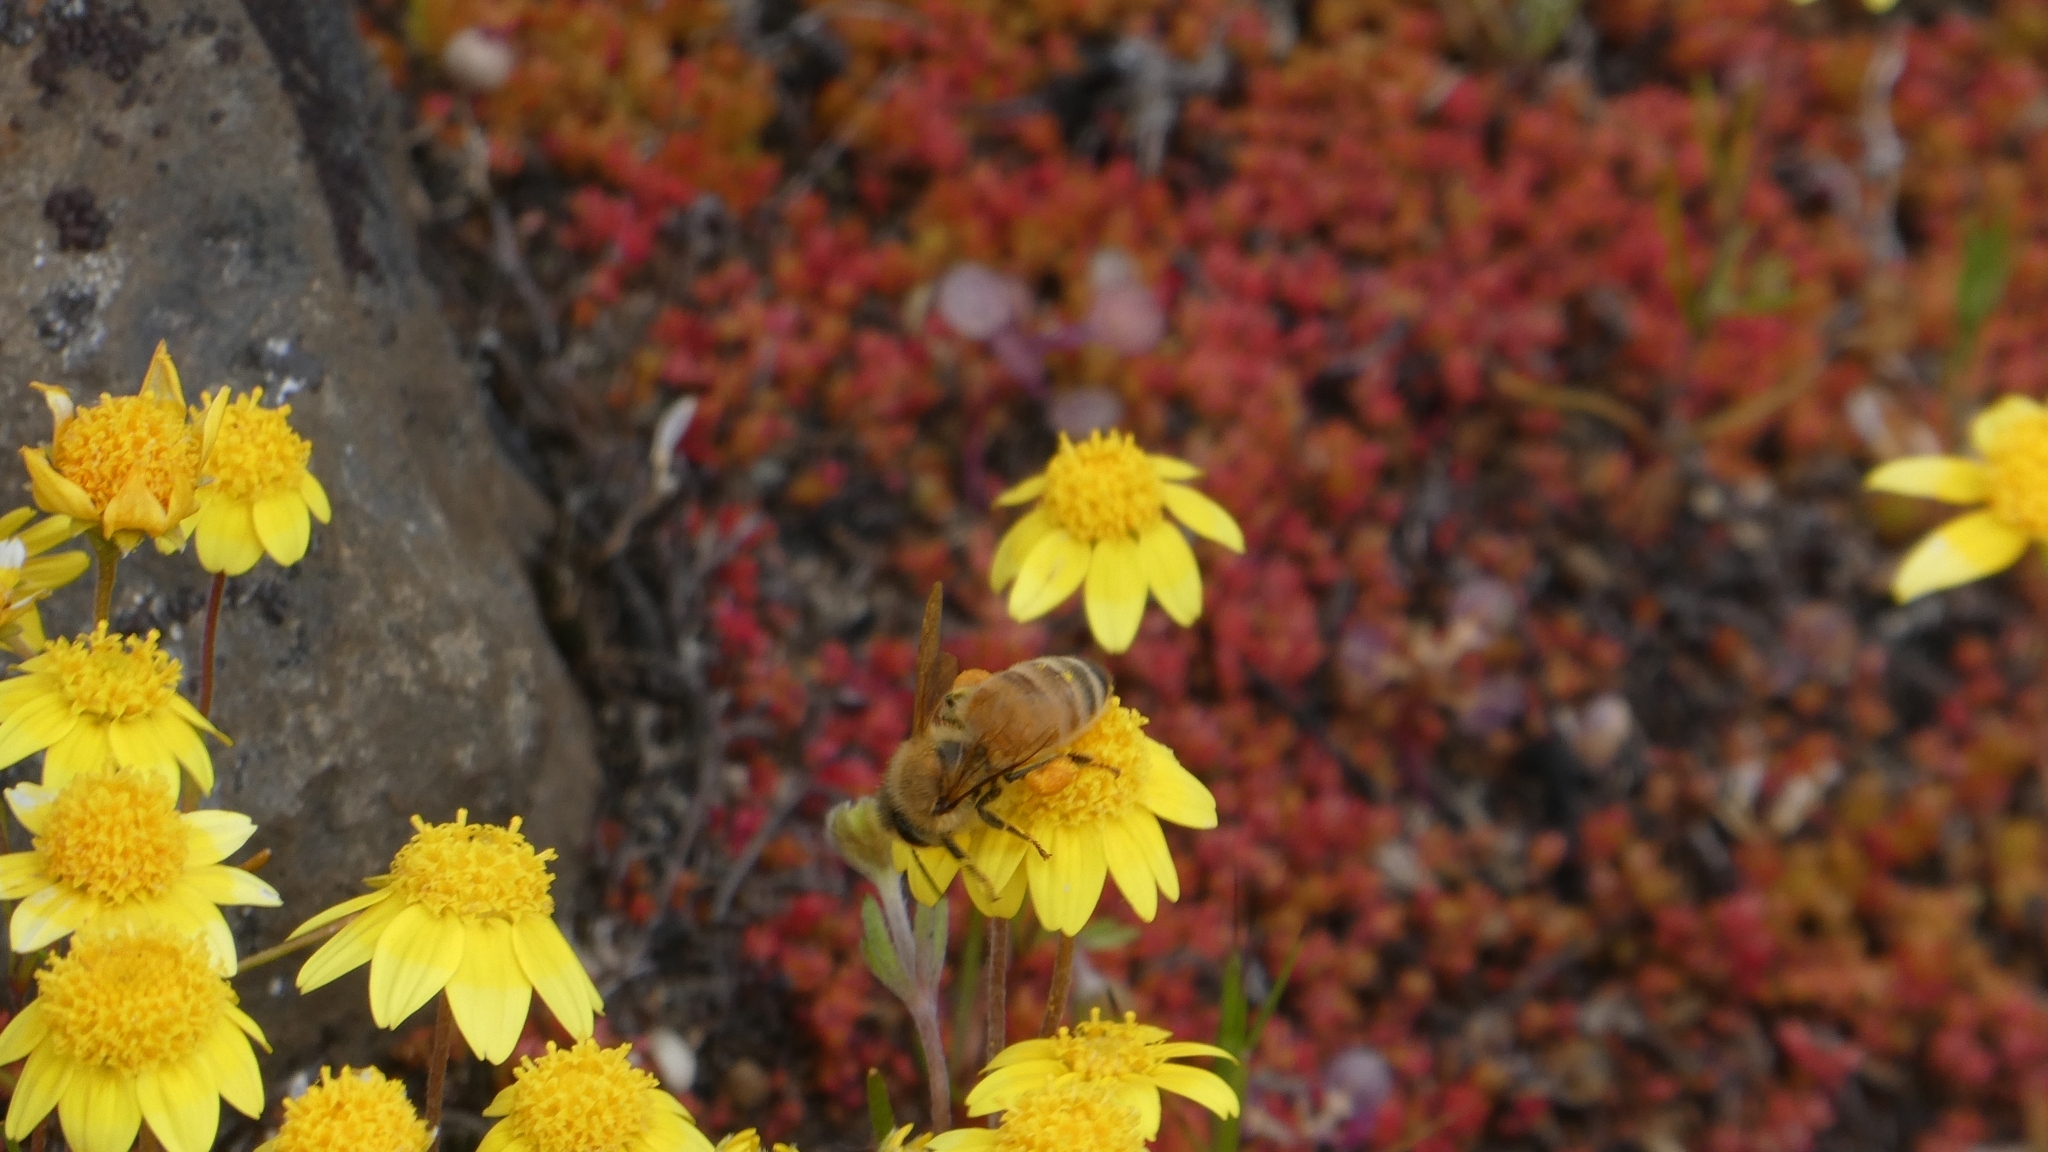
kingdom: Animalia
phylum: Arthropoda
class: Insecta
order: Hymenoptera
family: Apidae
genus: Apis
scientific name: Apis mellifera
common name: Honey bee
